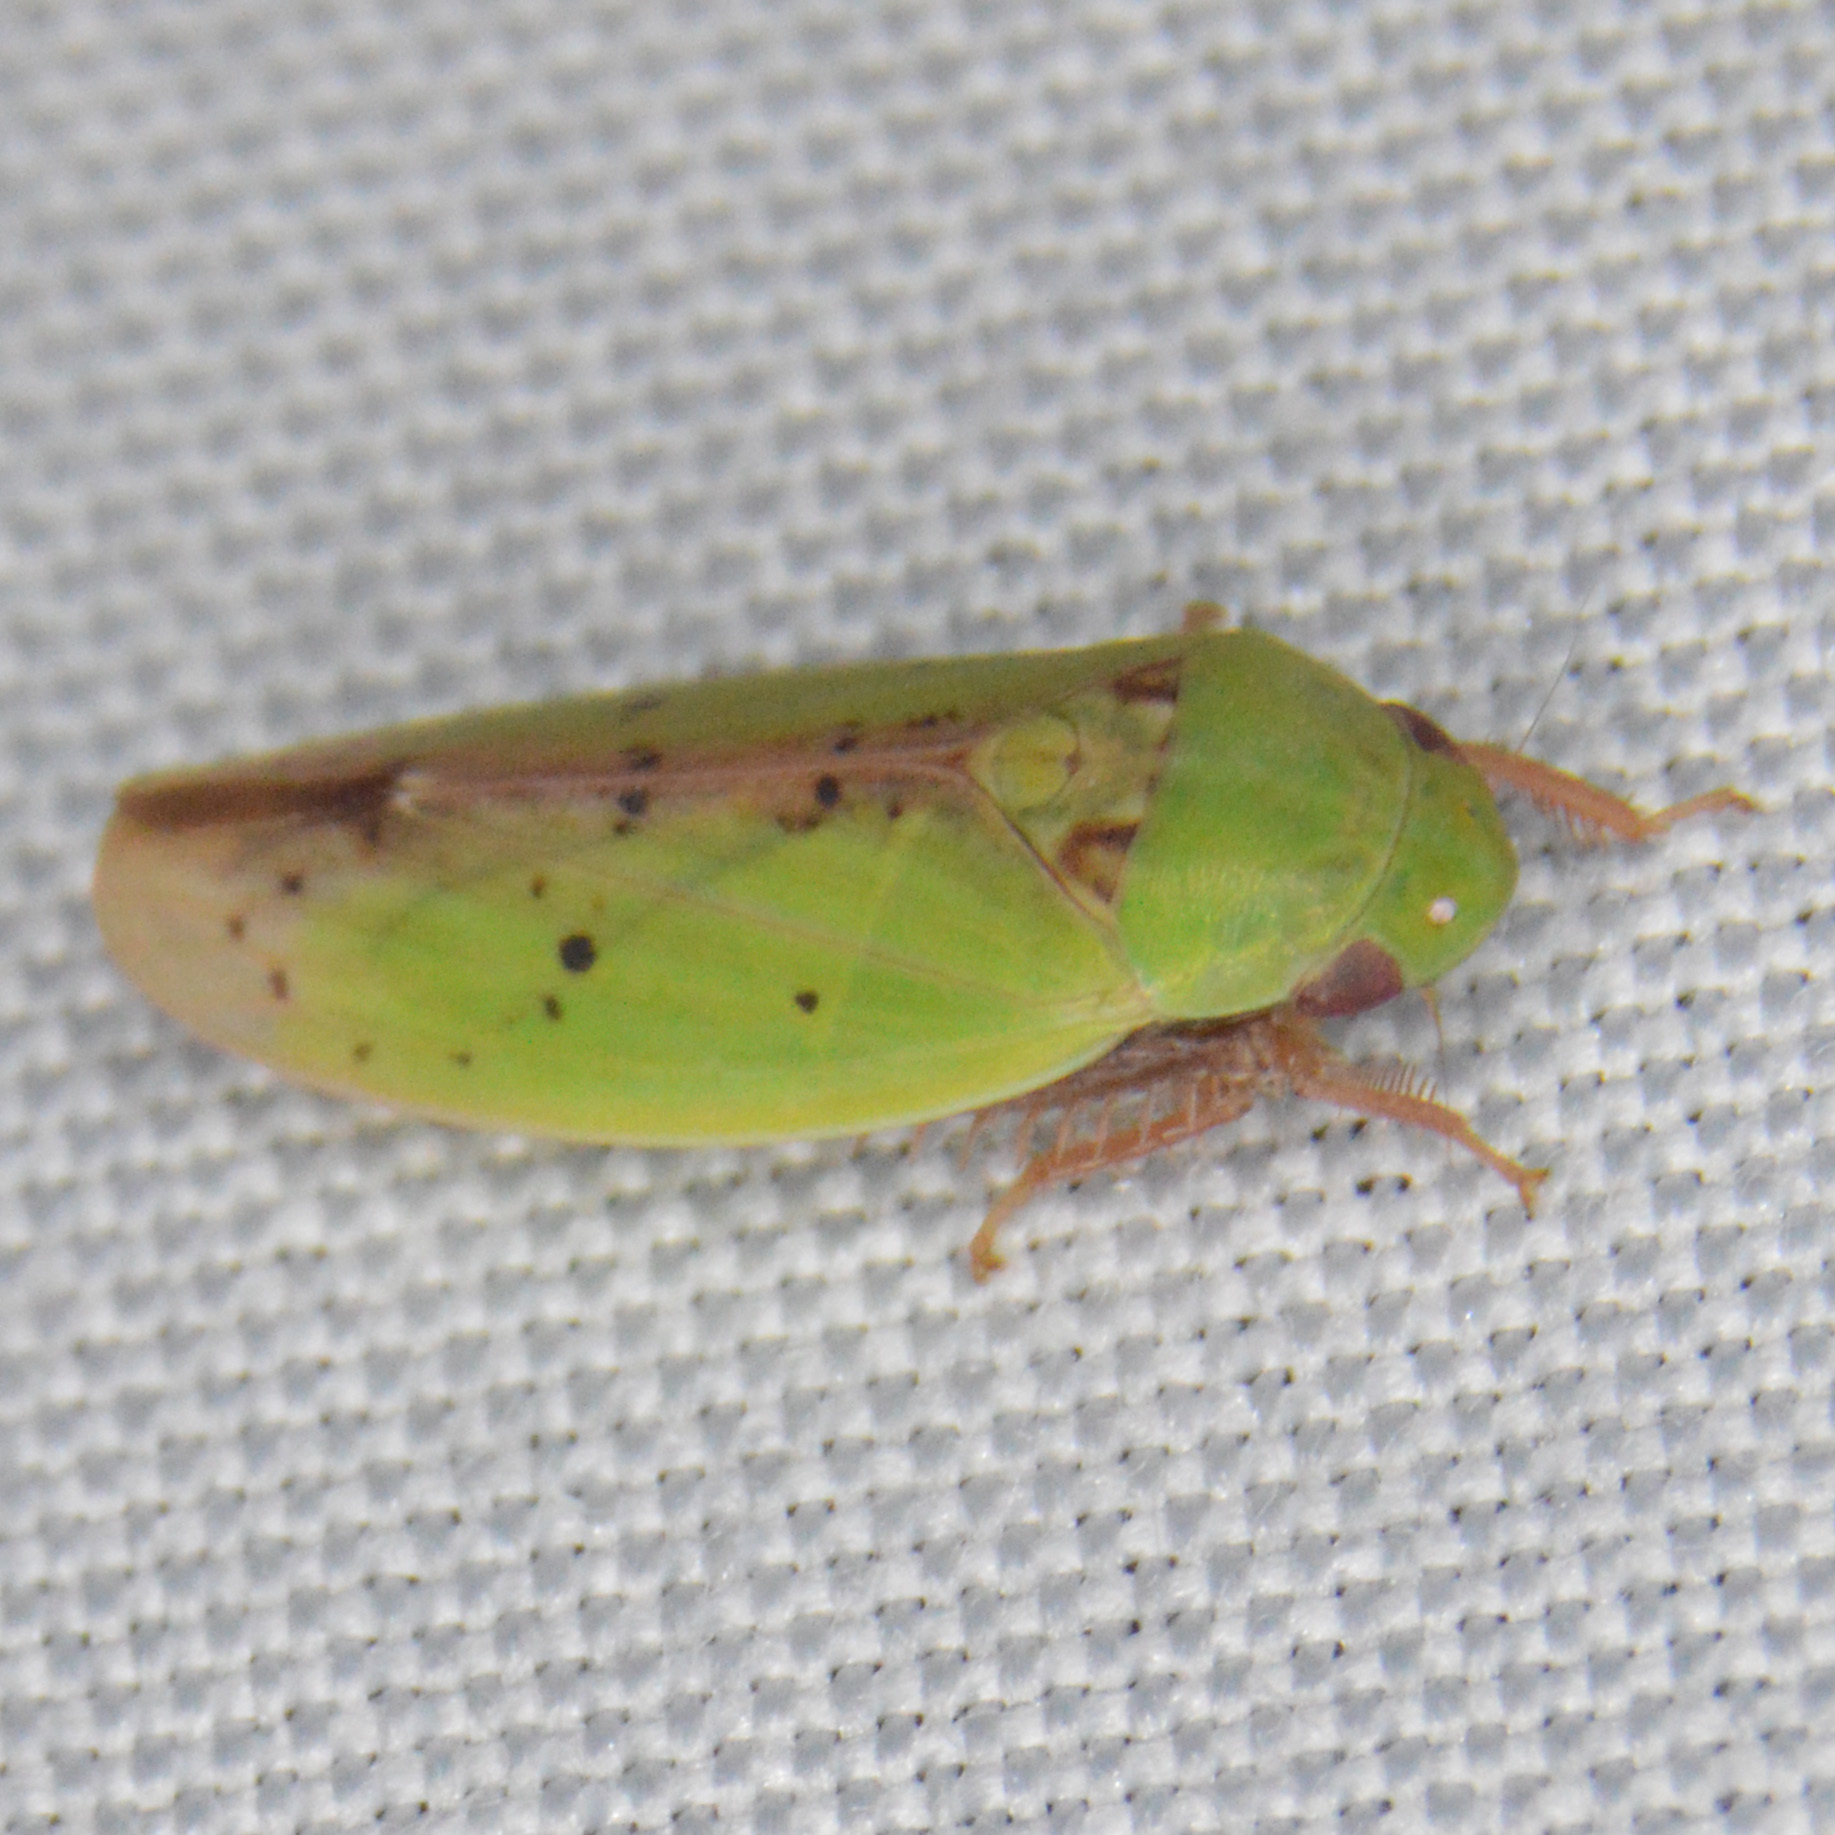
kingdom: Animalia
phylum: Arthropoda
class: Insecta
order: Hemiptera
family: Cicadellidae
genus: Ponana
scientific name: Ponana
